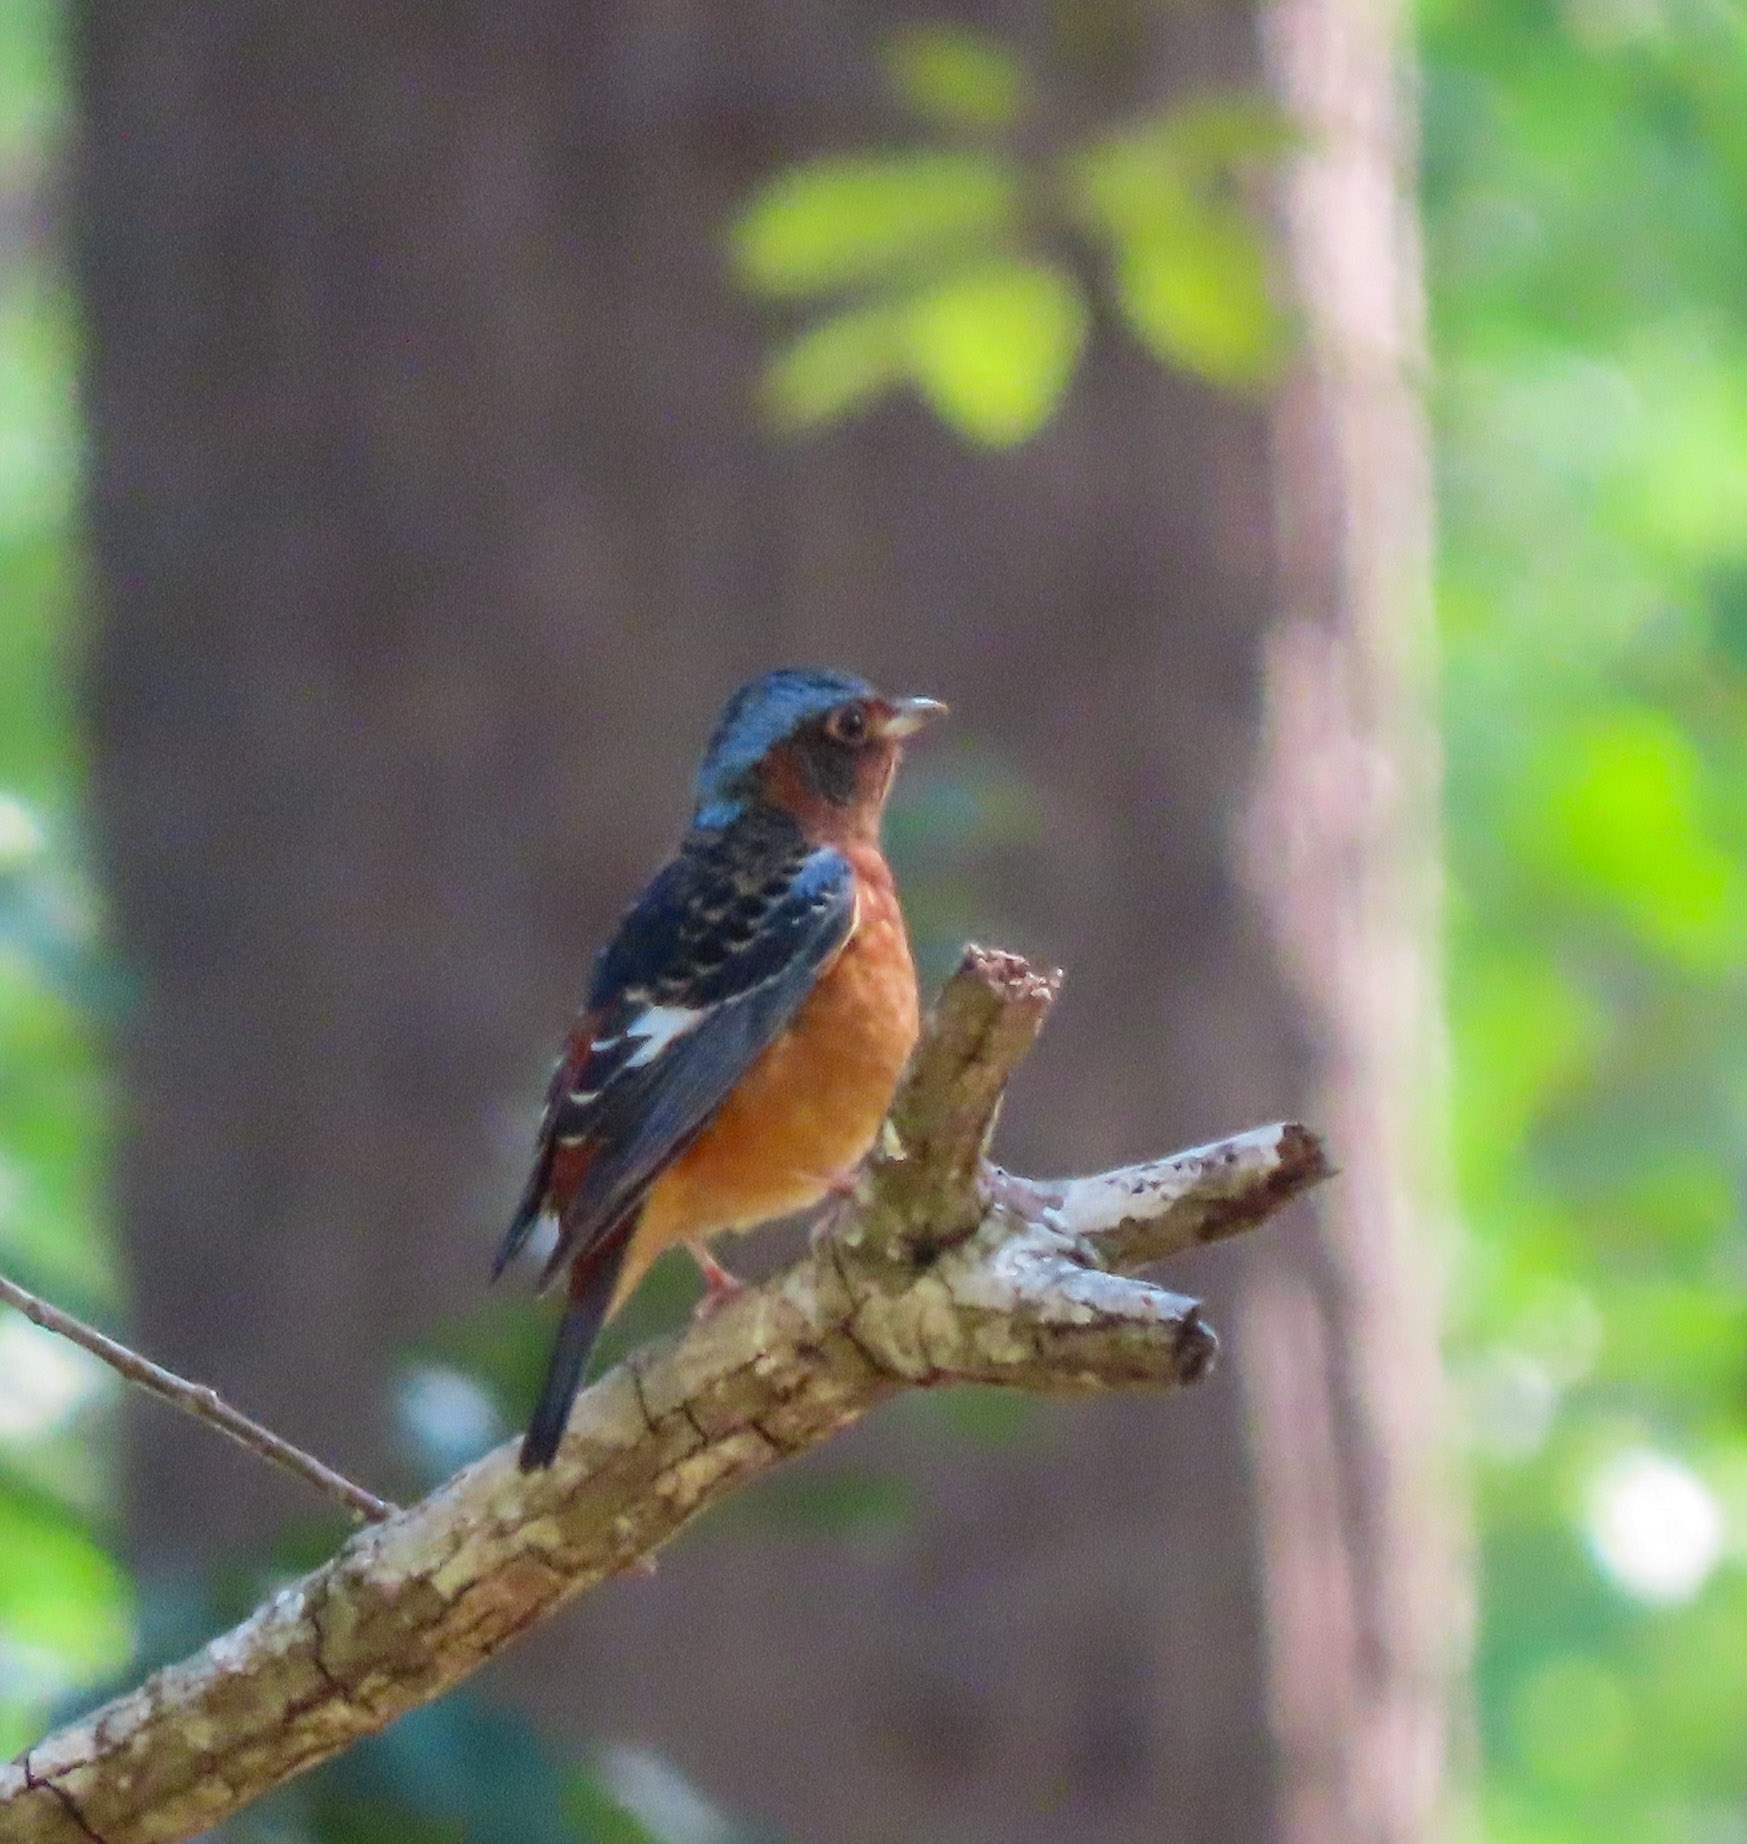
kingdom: Animalia
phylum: Chordata
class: Aves
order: Passeriformes
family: Muscicapidae
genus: Monticola
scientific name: Monticola gularis
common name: White-throated rock thrush
